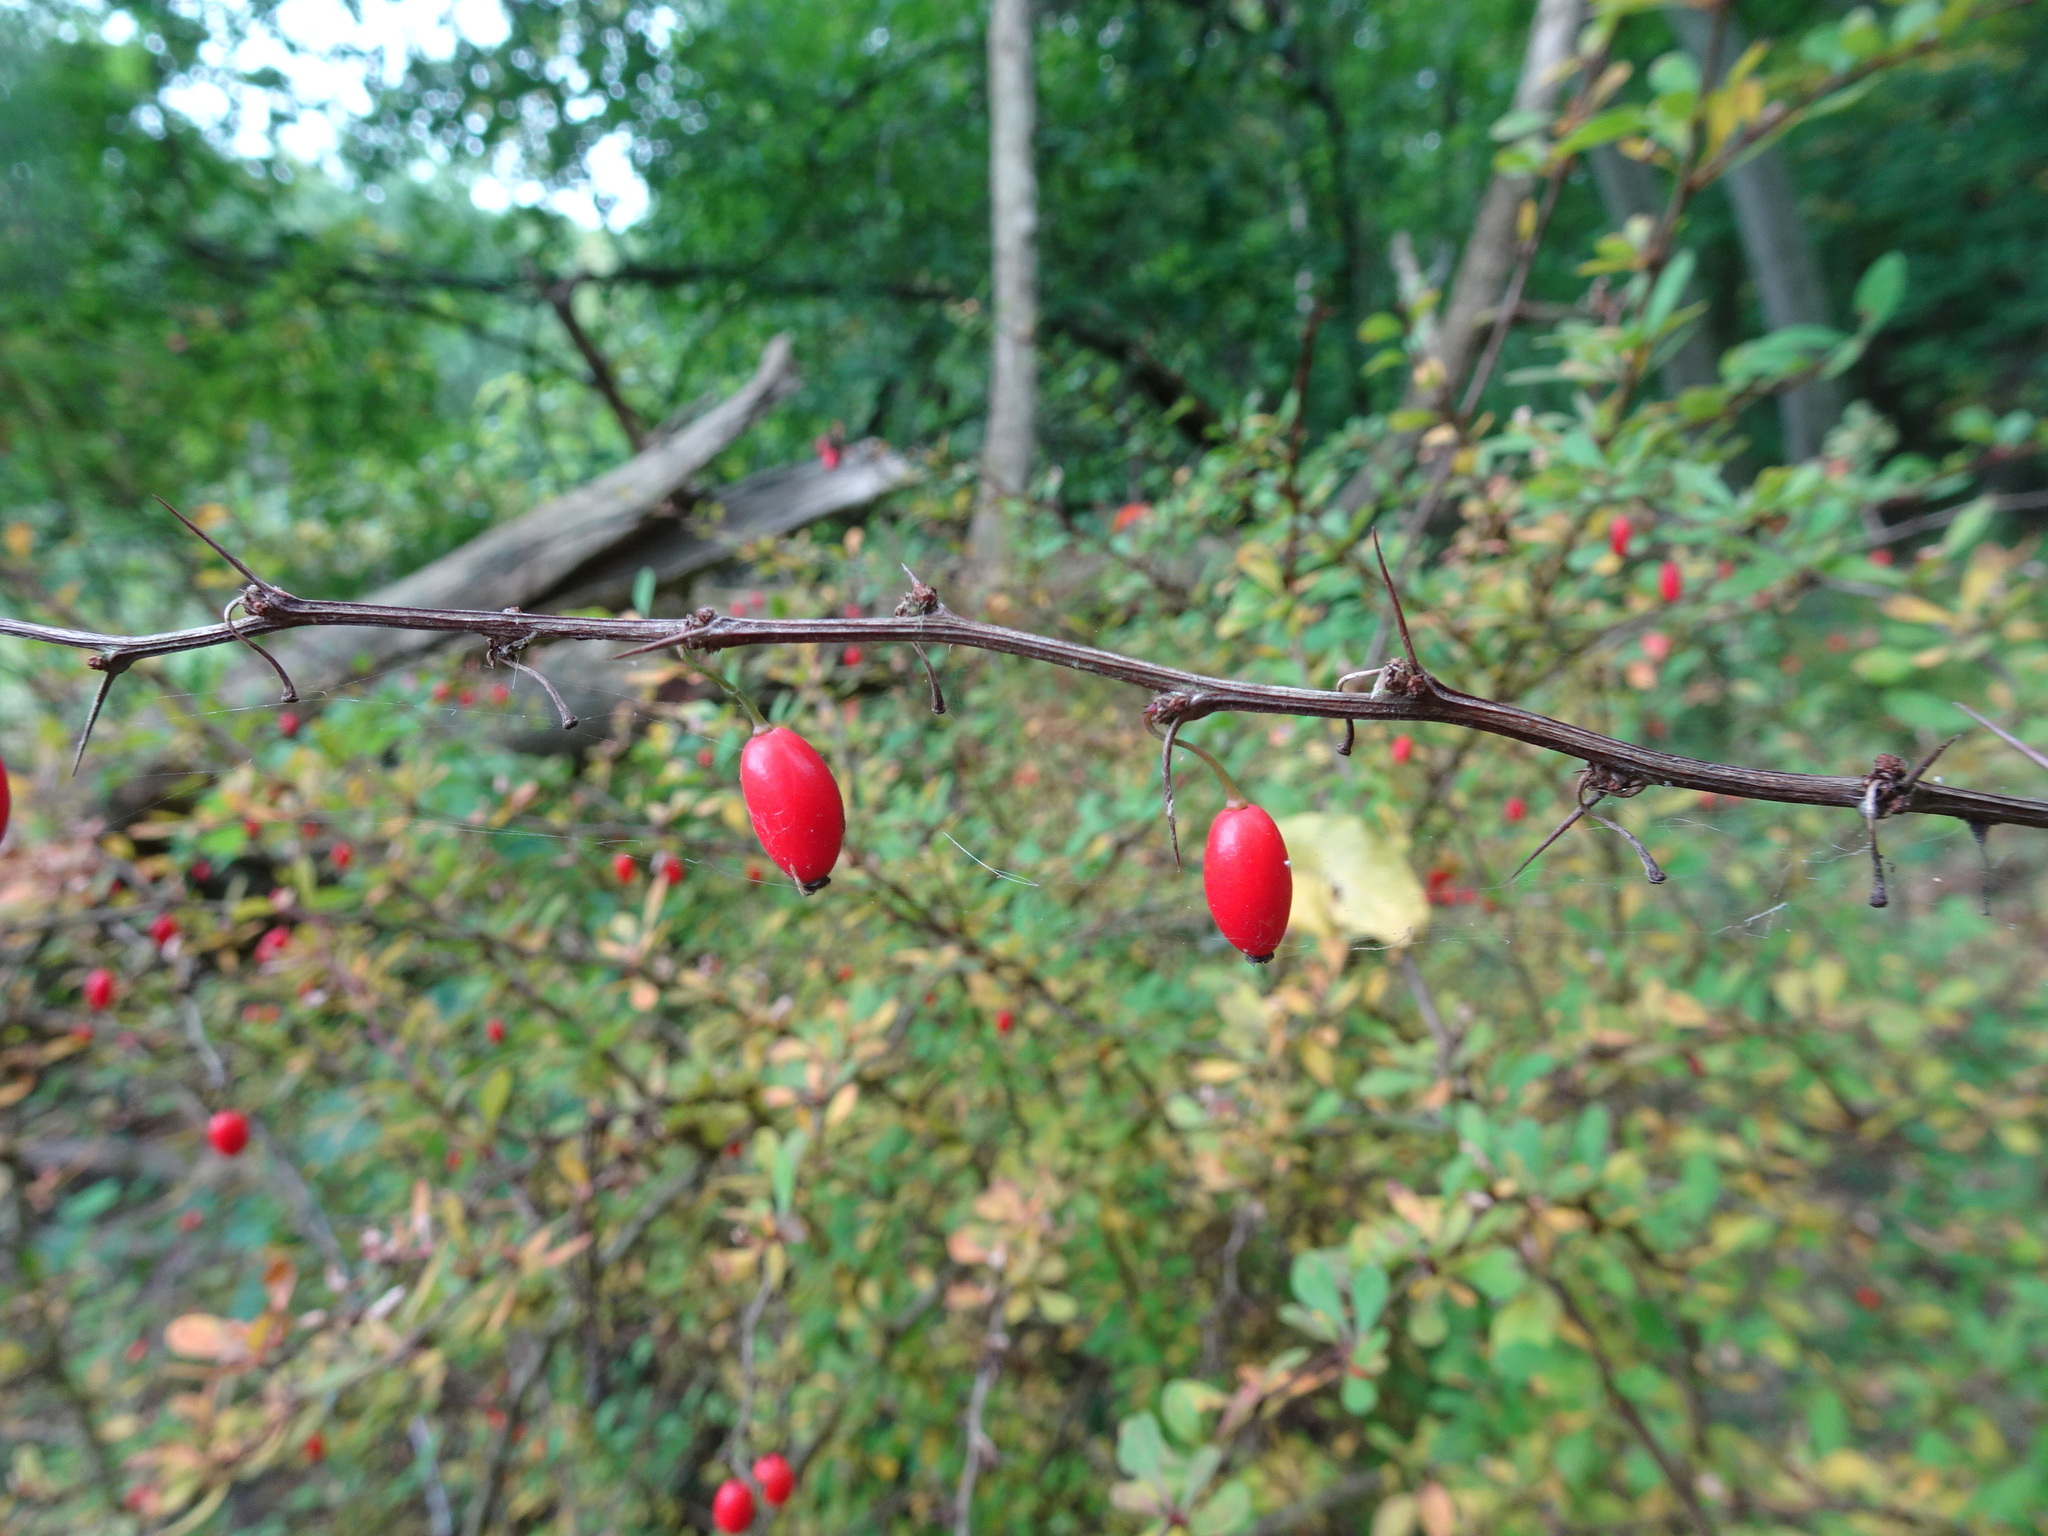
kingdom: Plantae
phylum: Tracheophyta
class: Magnoliopsida
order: Ranunculales
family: Berberidaceae
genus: Berberis
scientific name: Berberis thunbergii
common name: Japanese barberry
